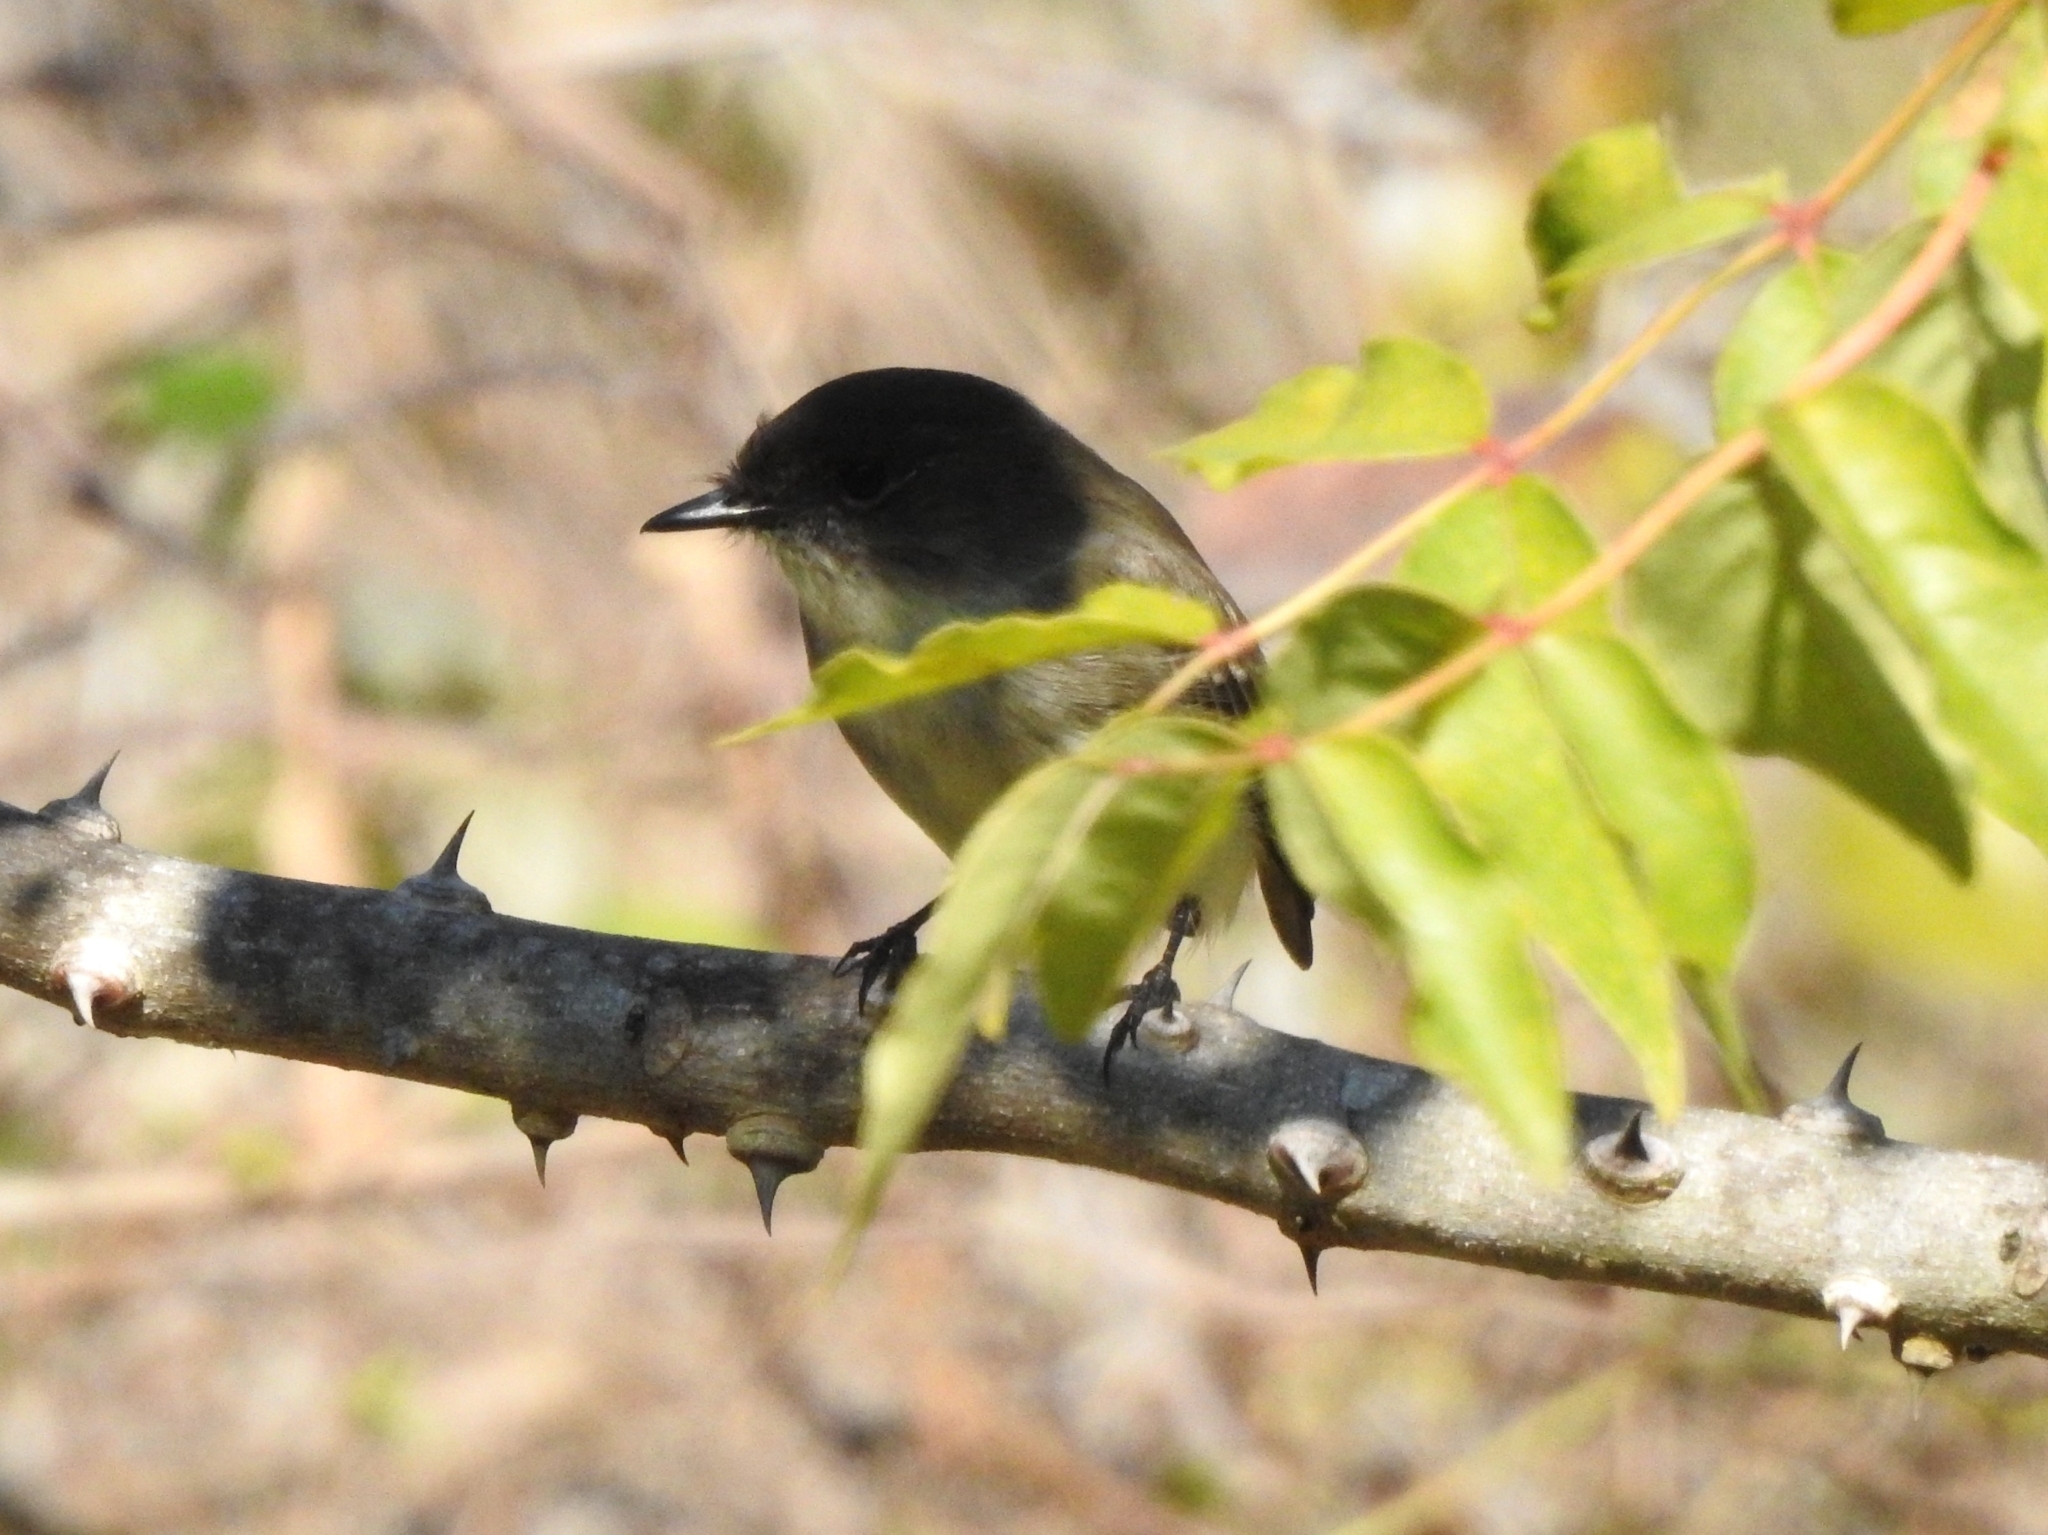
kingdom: Animalia
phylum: Chordata
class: Aves
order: Passeriformes
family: Tyrannidae
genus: Sayornis
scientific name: Sayornis phoebe
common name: Eastern phoebe
